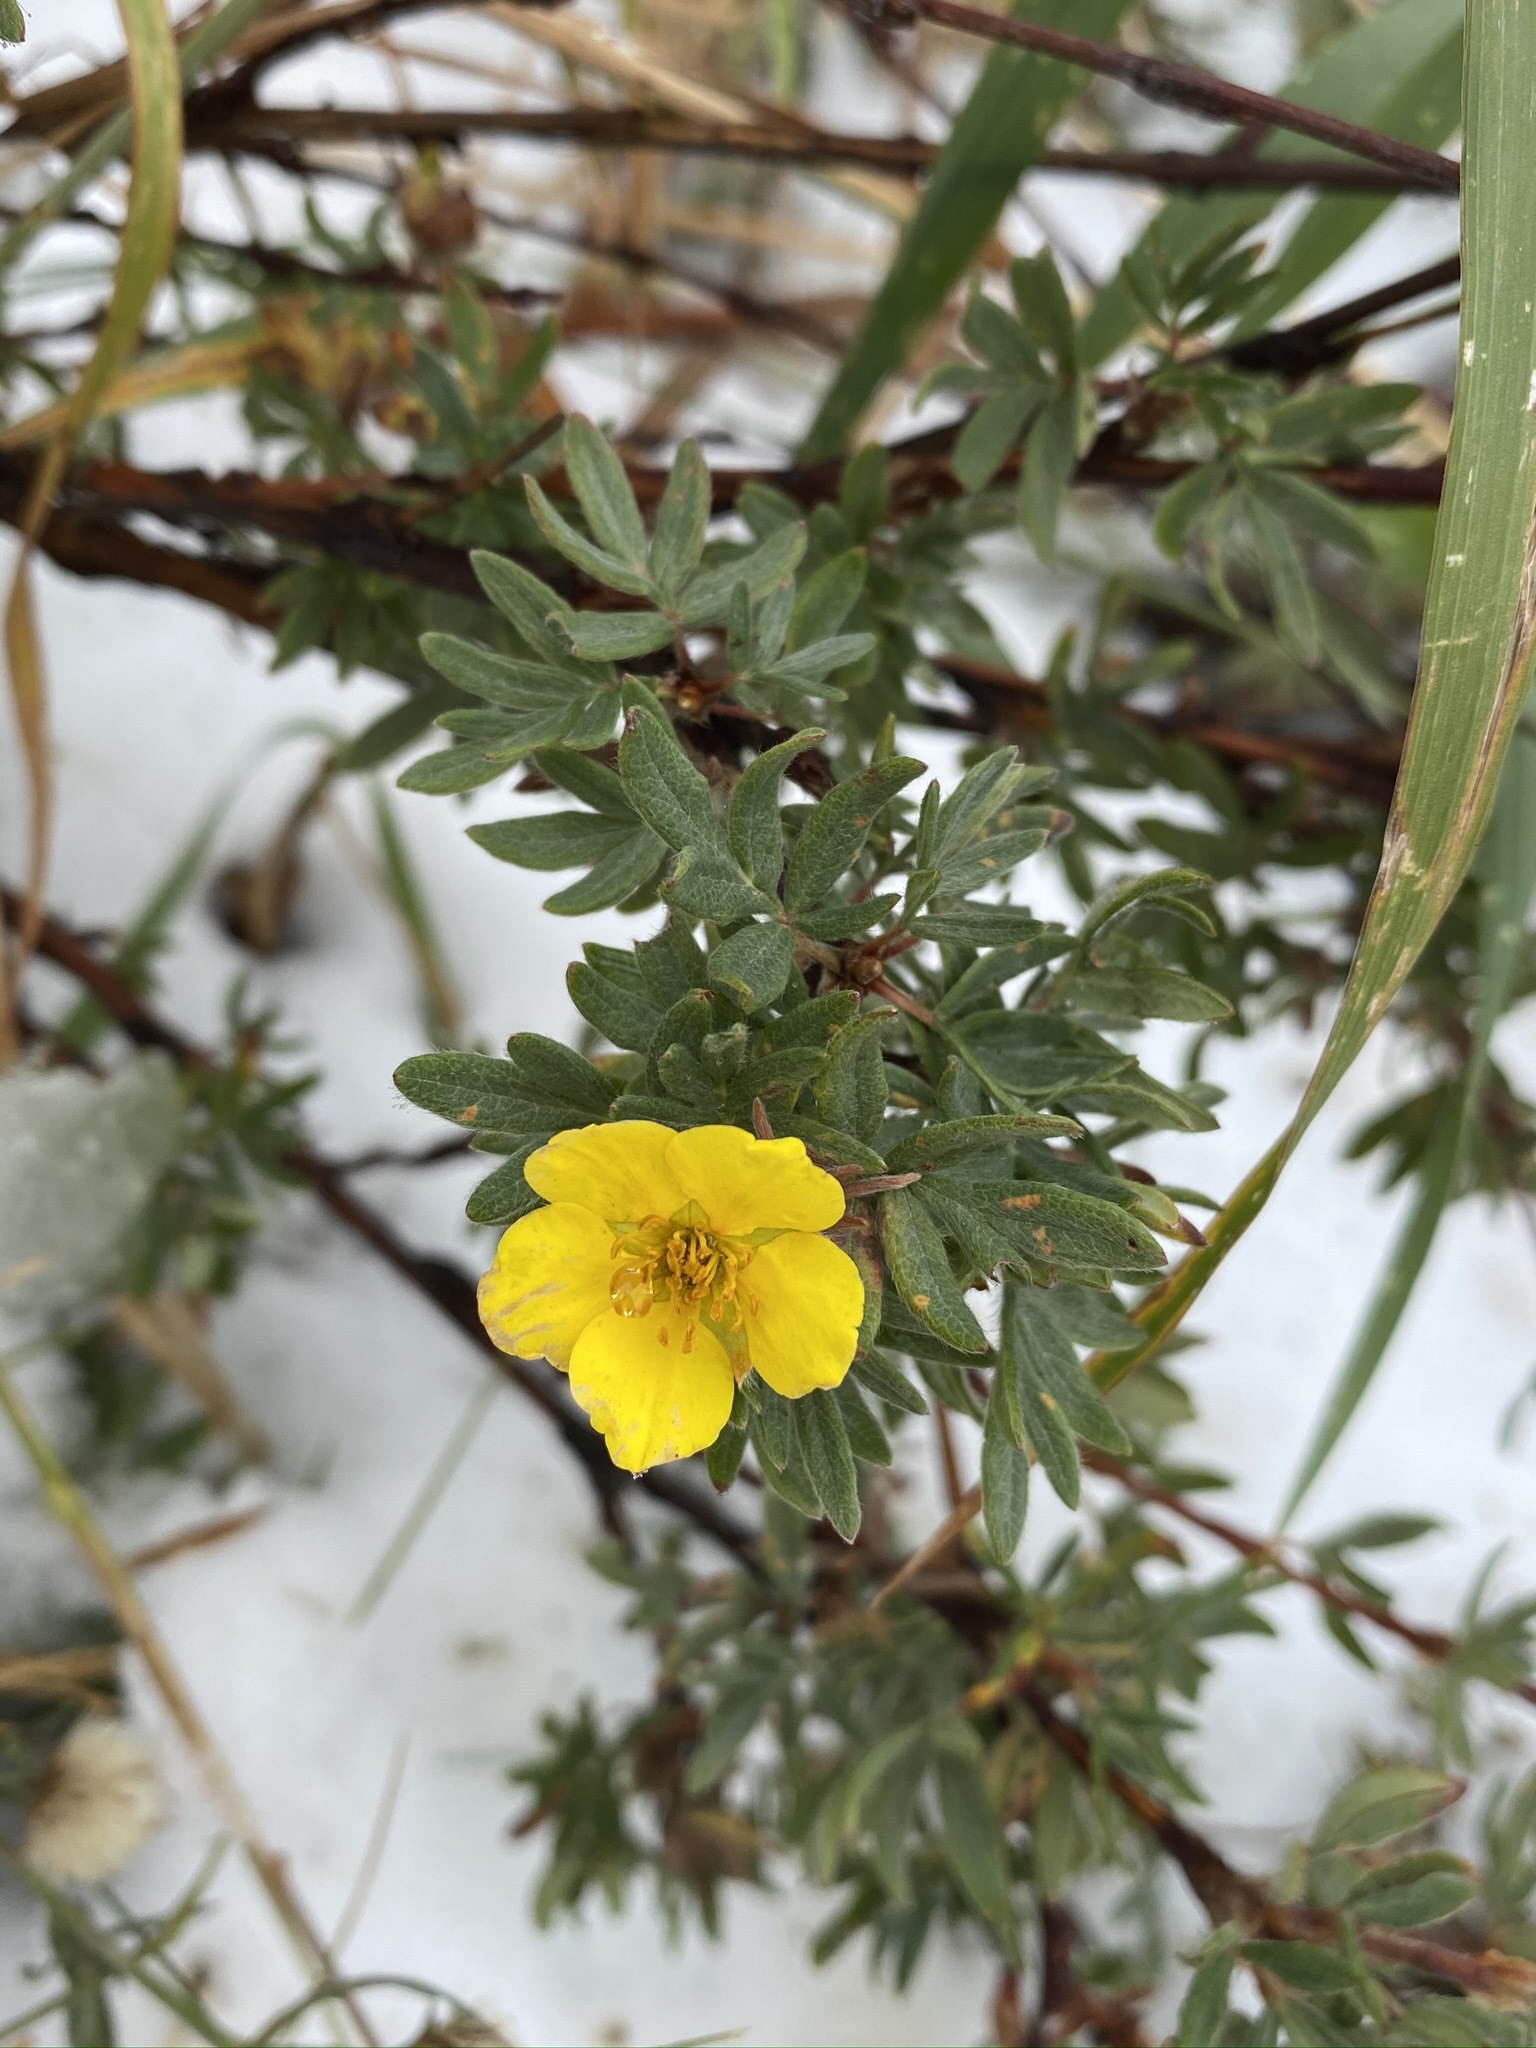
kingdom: Plantae
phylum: Tracheophyta
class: Magnoliopsida
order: Rosales
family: Rosaceae
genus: Dasiphora
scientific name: Dasiphora fruticosa
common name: Shrubby cinquefoil
